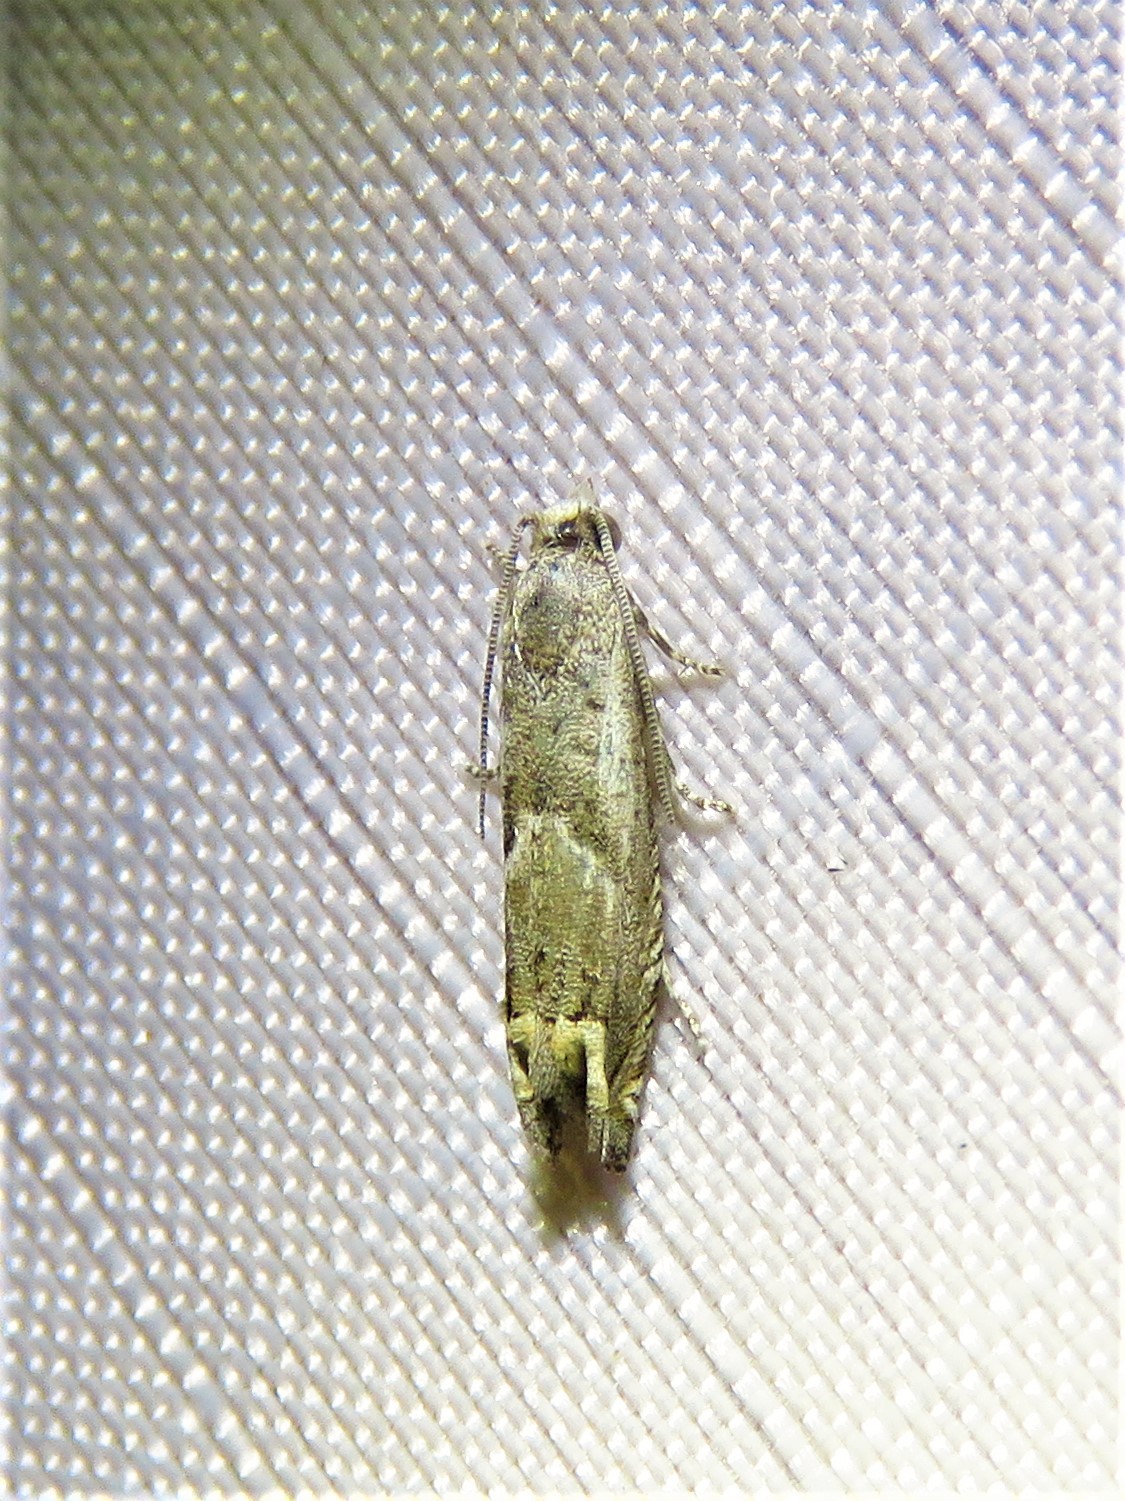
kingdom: Animalia
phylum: Arthropoda
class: Insecta
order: Lepidoptera
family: Tortricidae
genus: Epiblema
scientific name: Epiblema strenuana
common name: Ragweed borer moth
